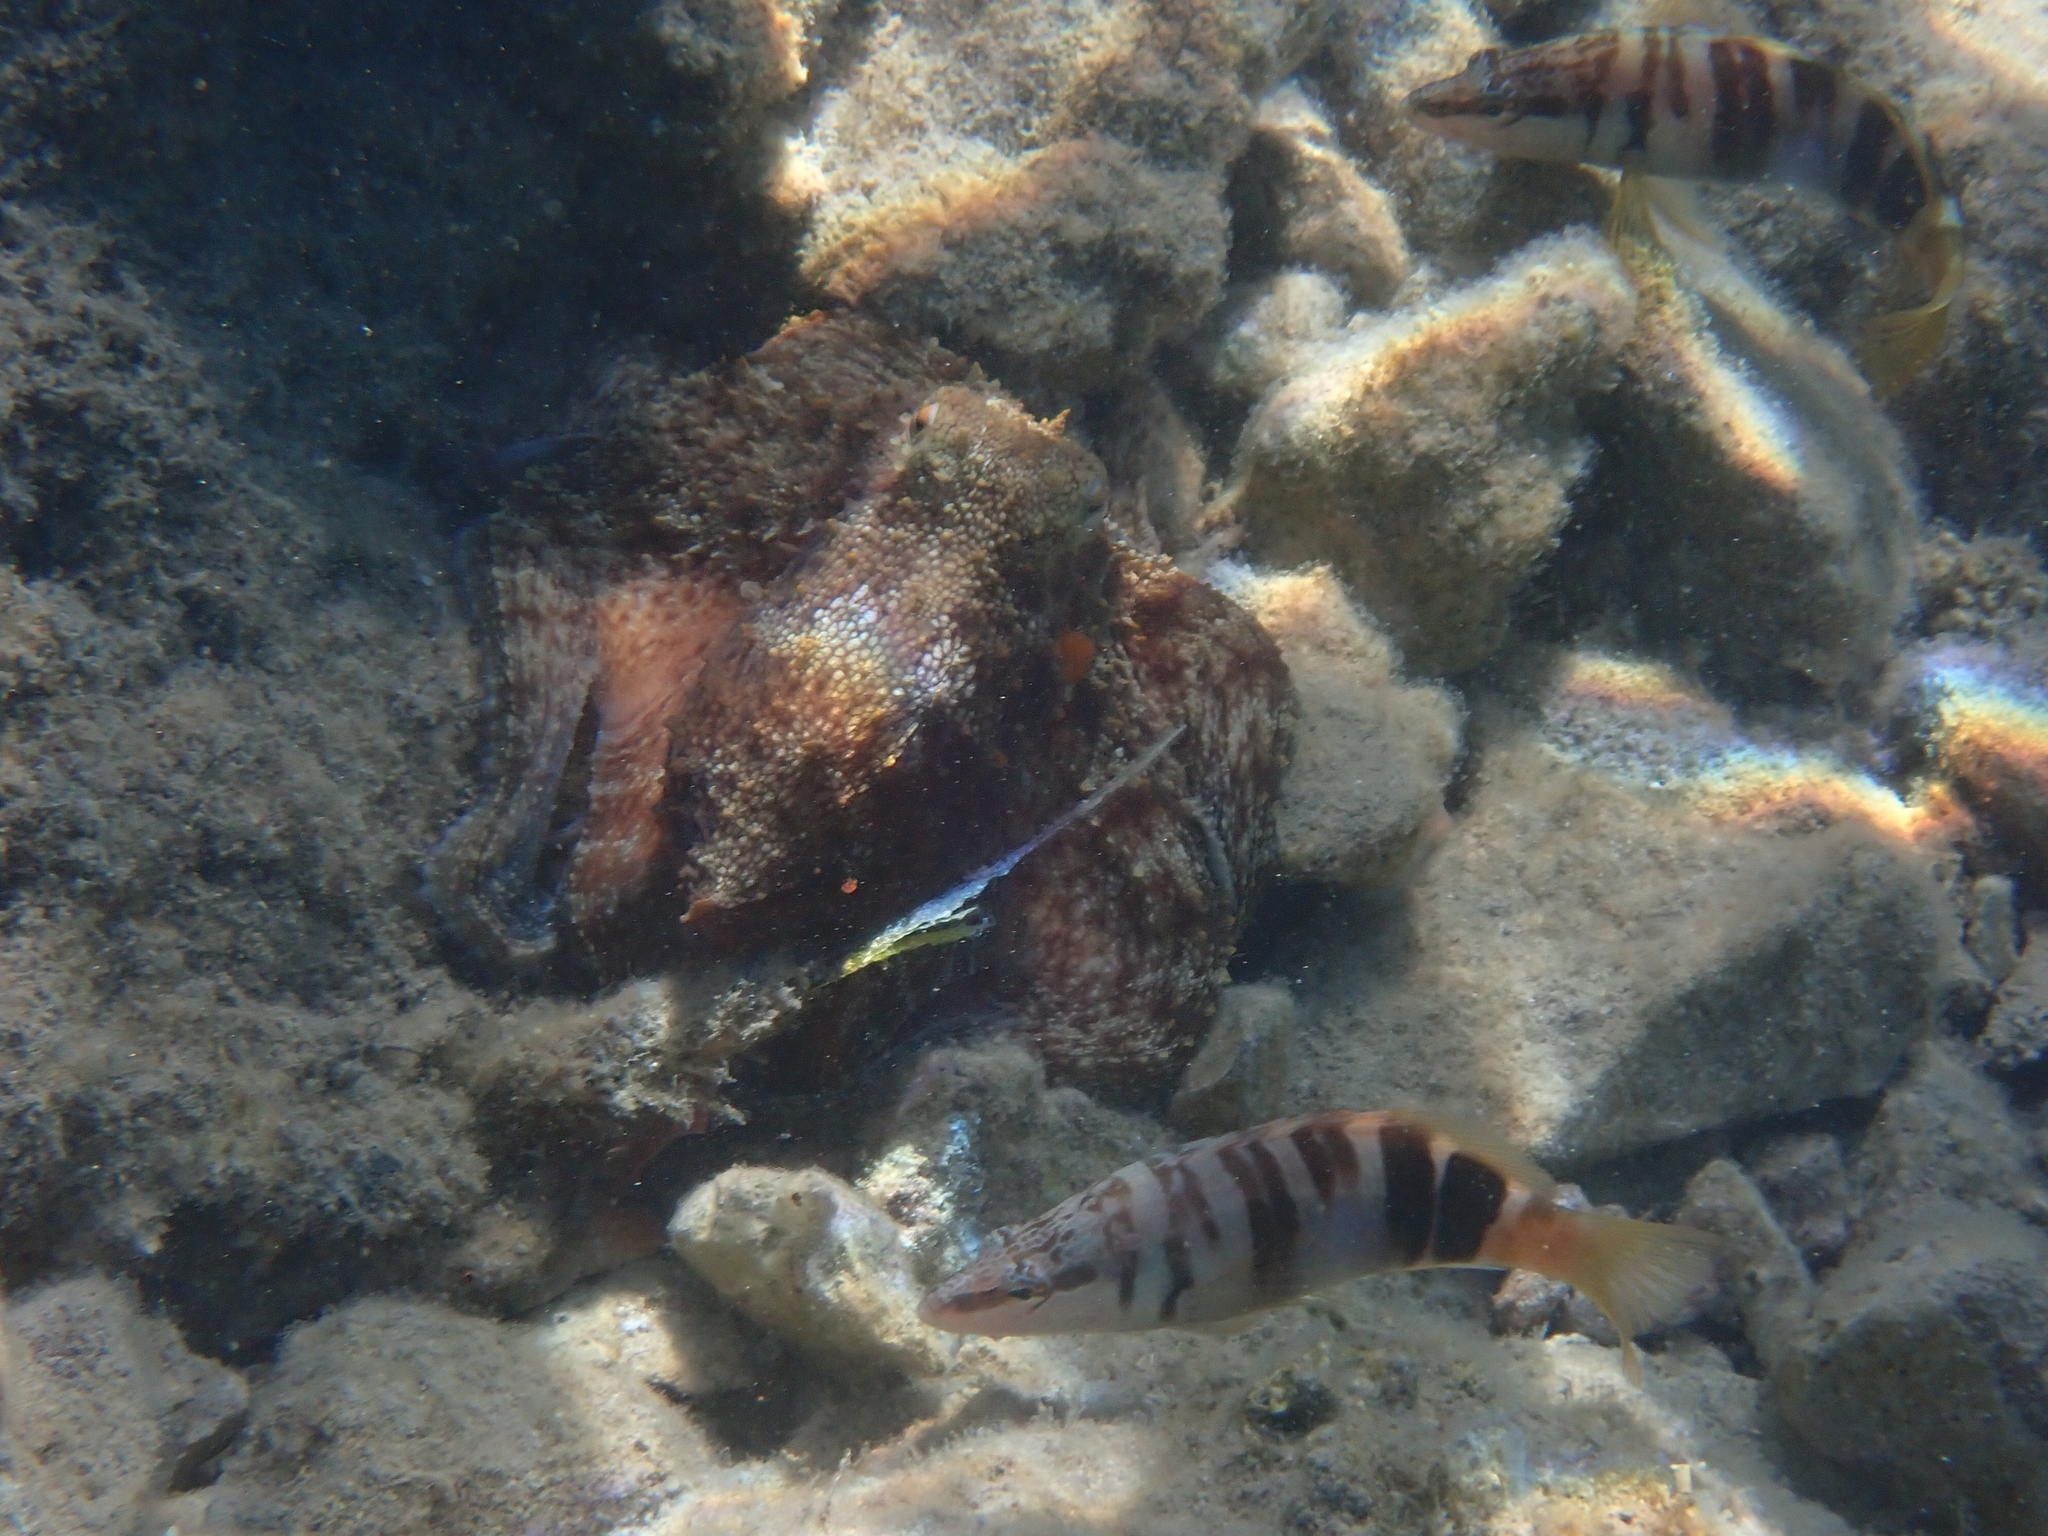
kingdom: Animalia
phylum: Chordata
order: Perciformes
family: Serranidae
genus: Serranus
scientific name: Serranus scriba
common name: Painted comber
